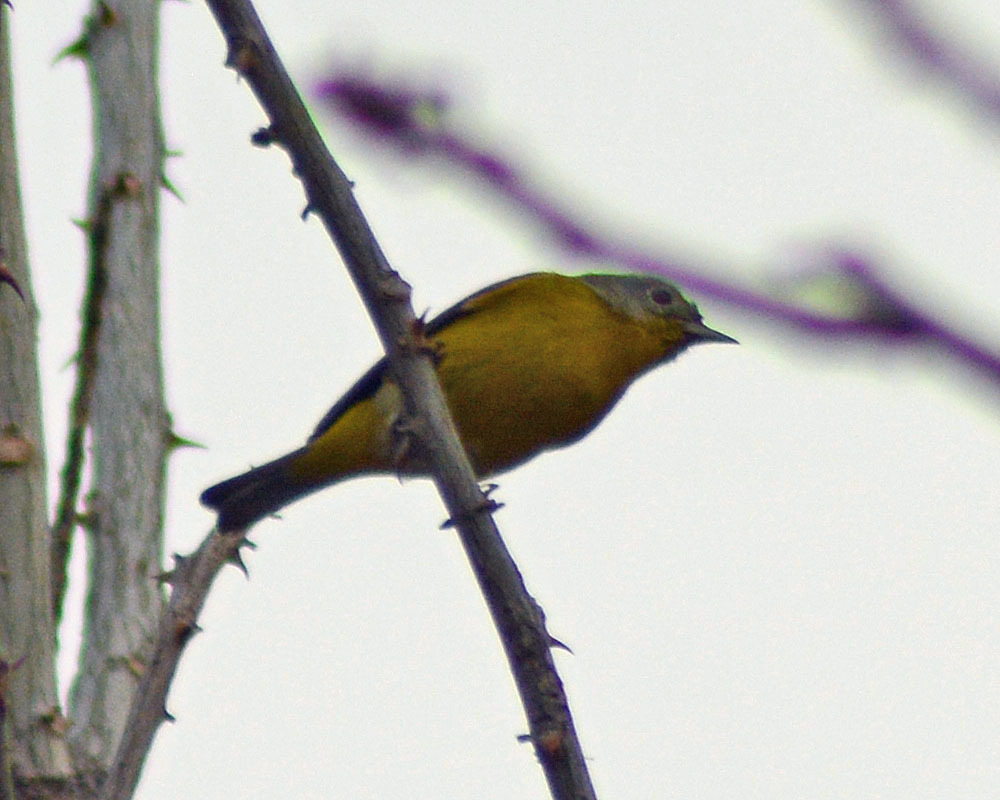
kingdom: Animalia
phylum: Chordata
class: Aves
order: Passeriformes
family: Parulidae
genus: Leiothlypis
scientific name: Leiothlypis ruficapilla
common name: Nashville warbler
